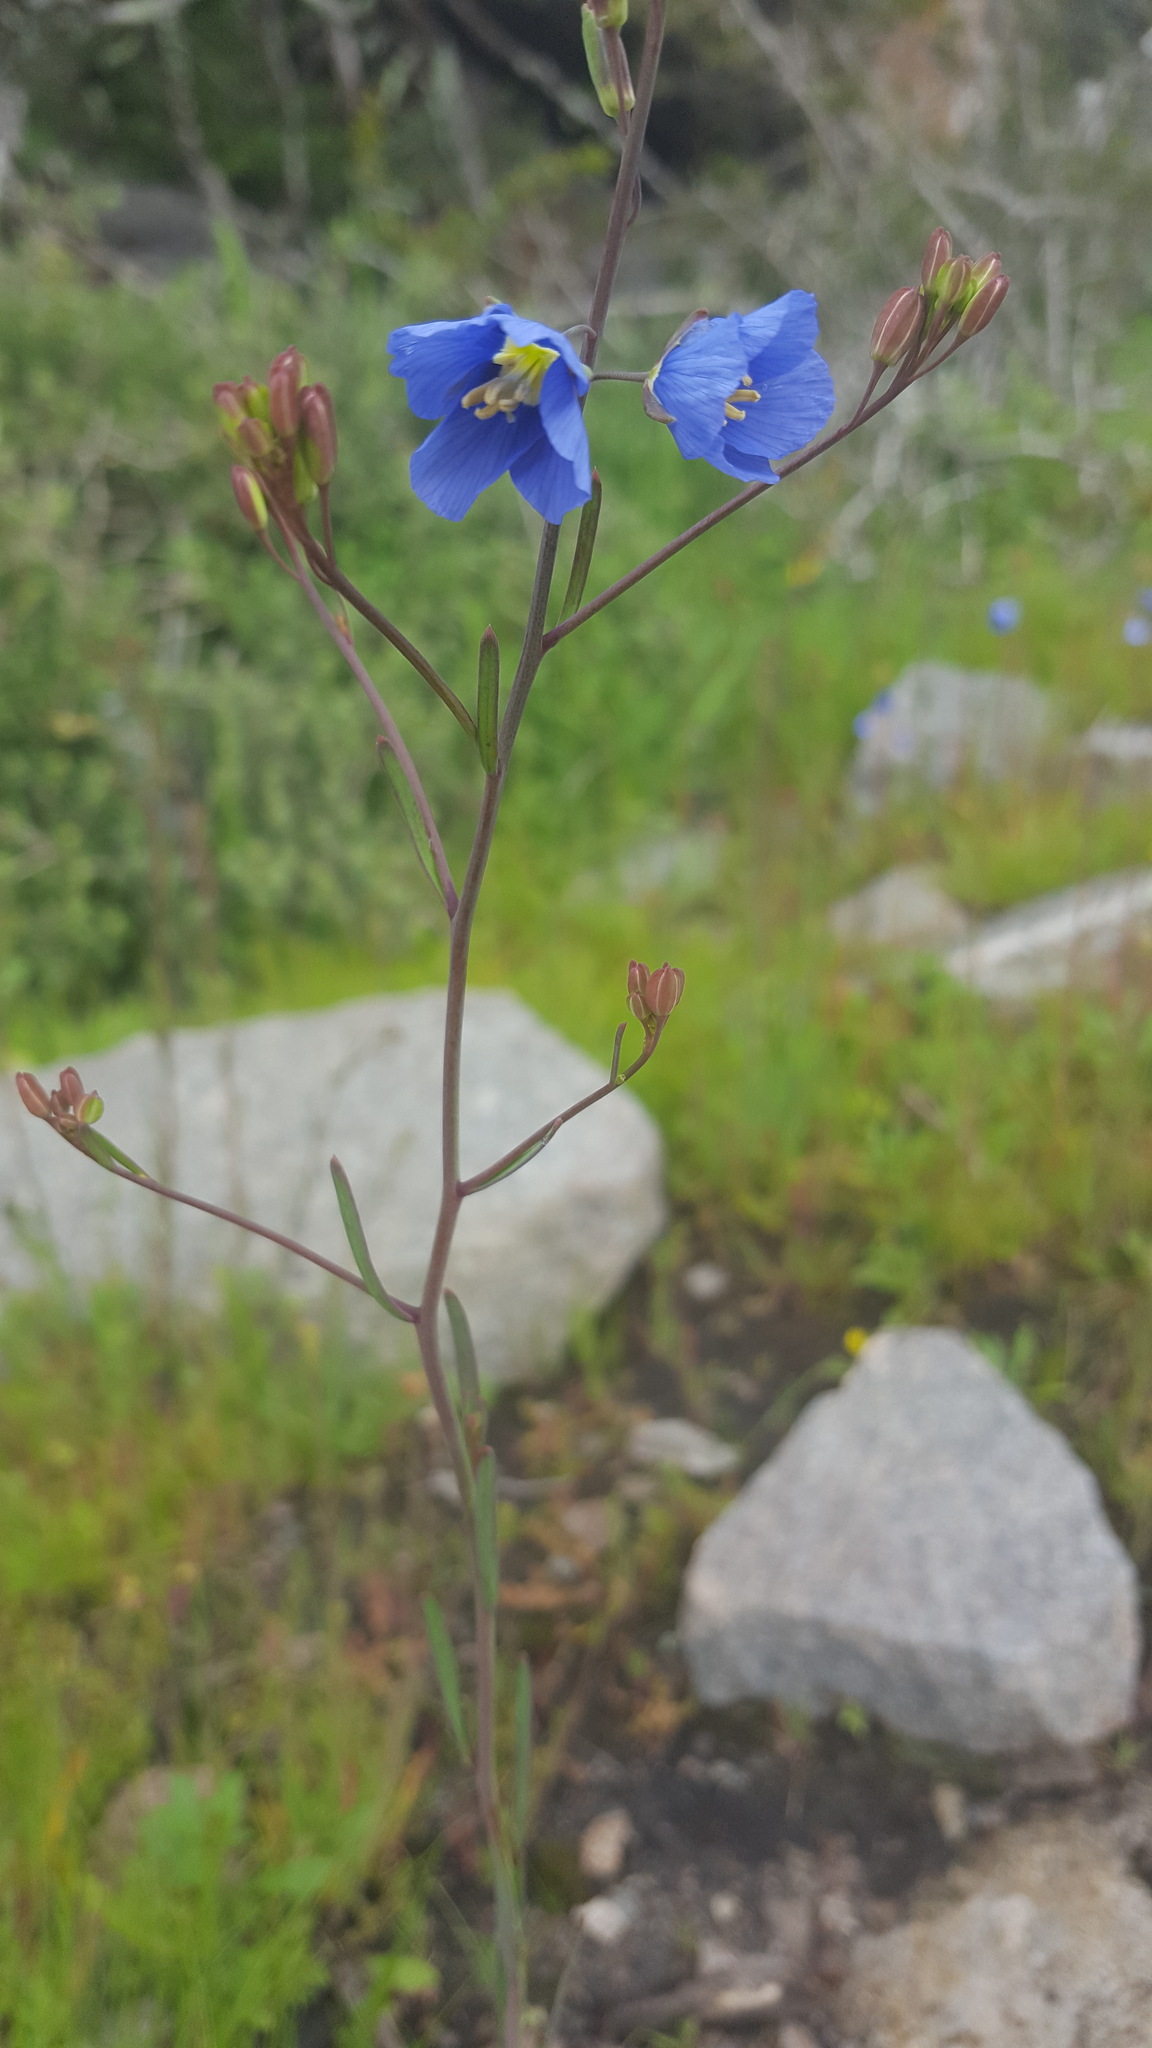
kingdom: Plantae
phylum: Tracheophyta
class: Magnoliopsida
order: Brassicales
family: Brassicaceae
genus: Heliophila
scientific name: Heliophila coronopifolia
